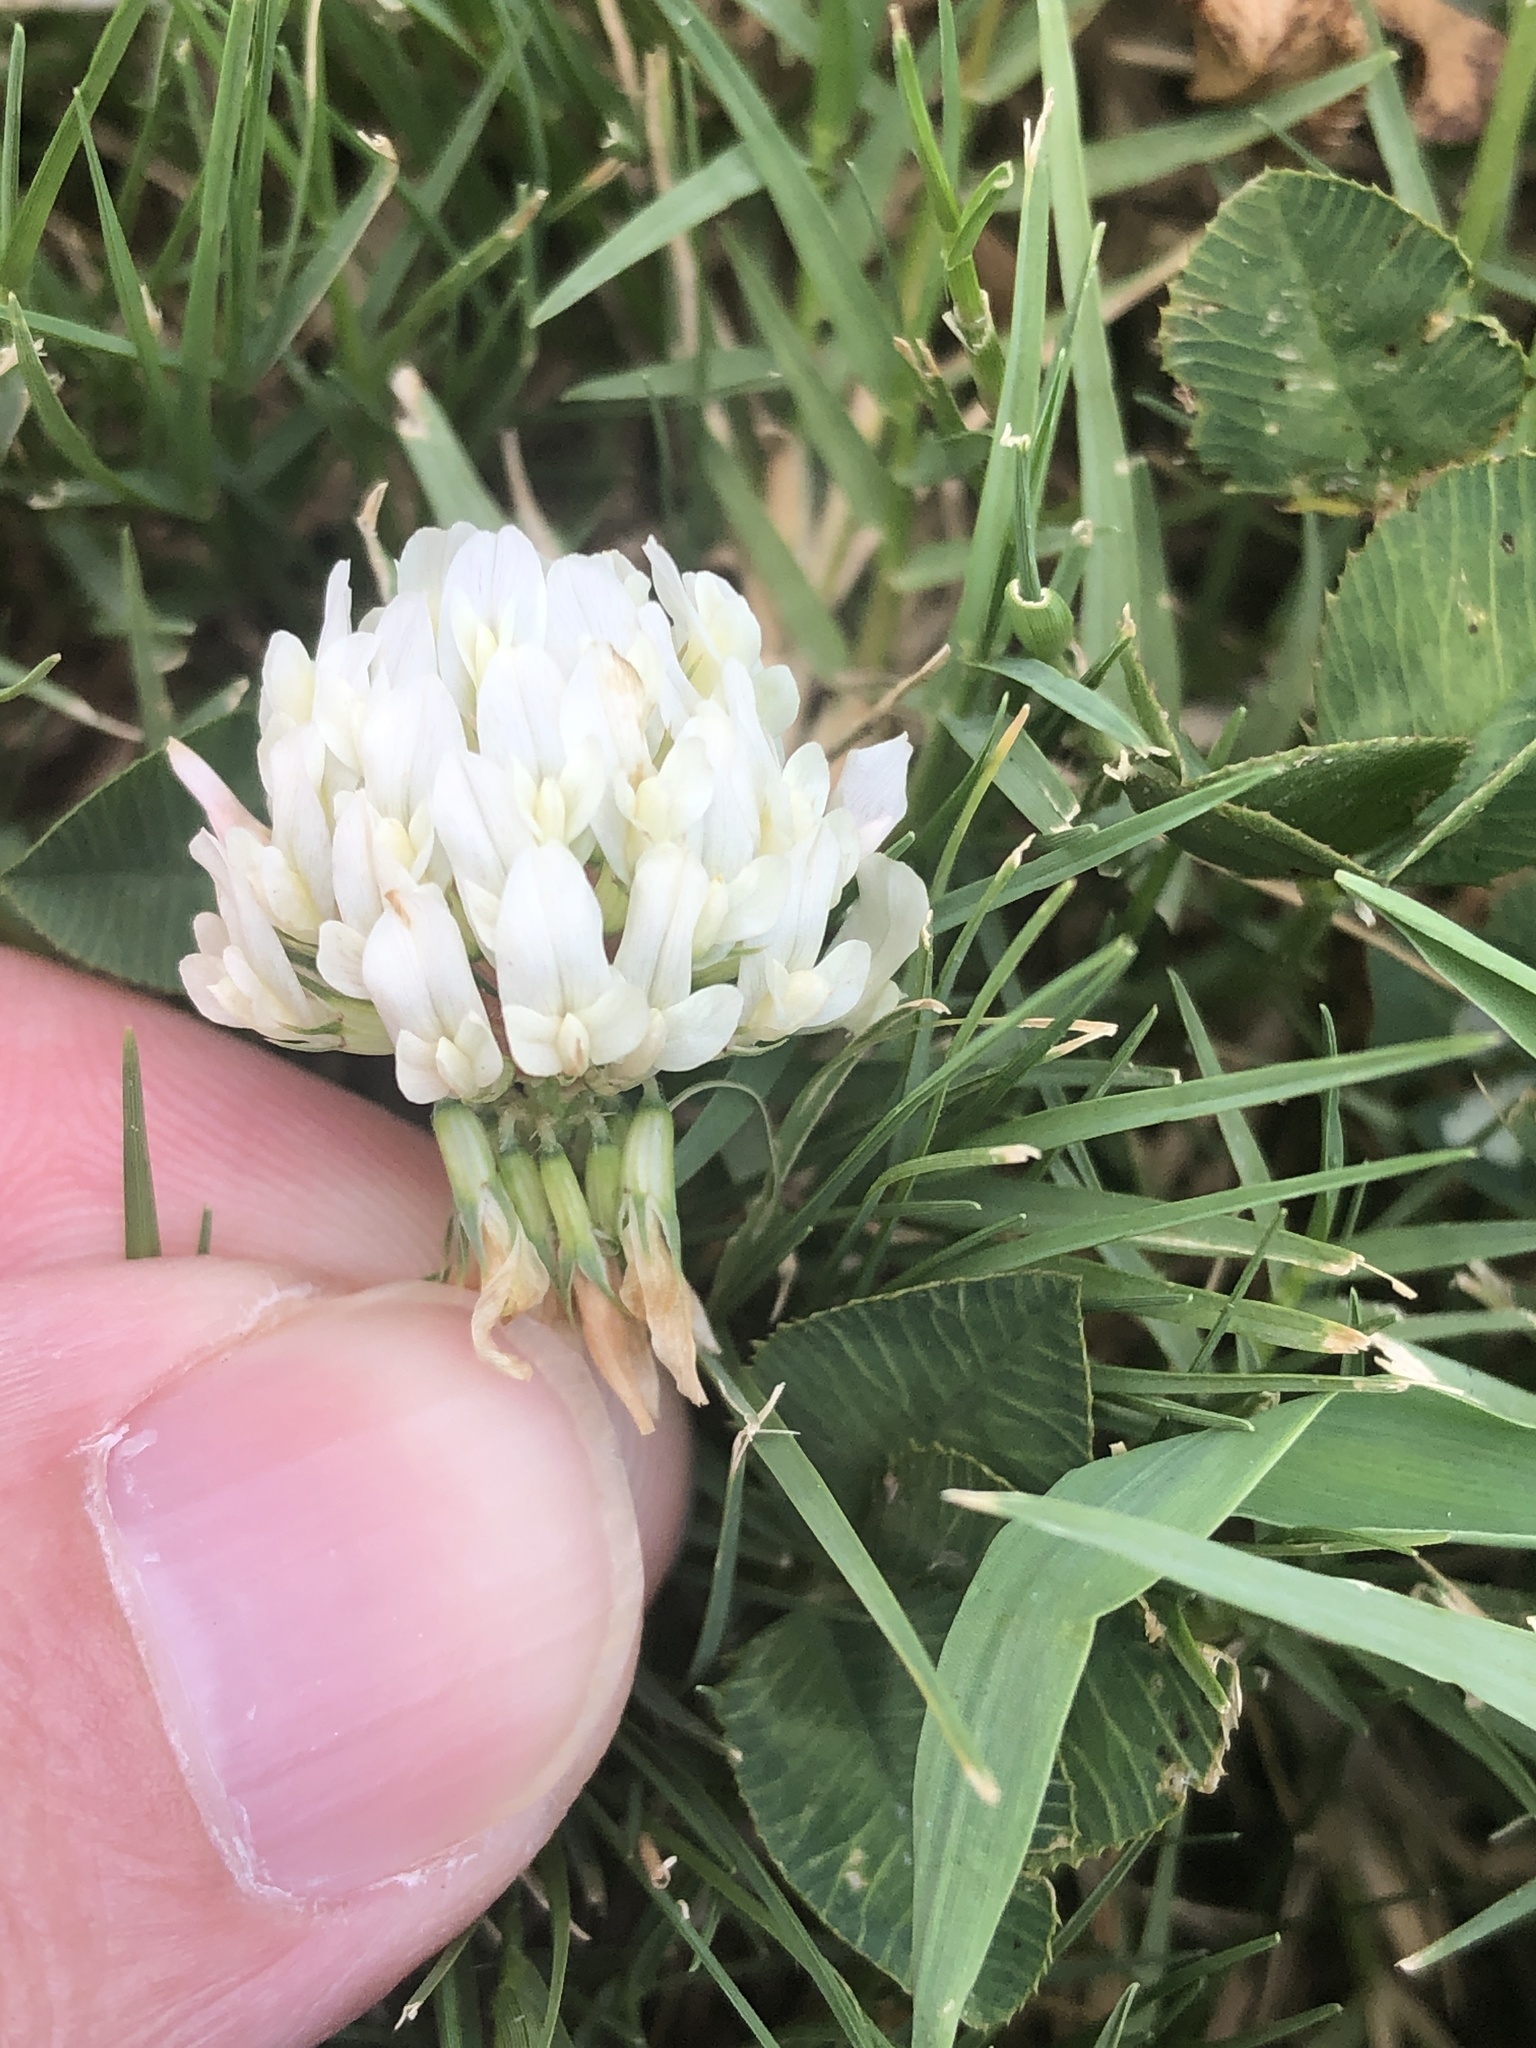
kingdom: Plantae
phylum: Tracheophyta
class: Magnoliopsida
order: Fabales
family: Fabaceae
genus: Trifolium
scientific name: Trifolium repens
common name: White clover
